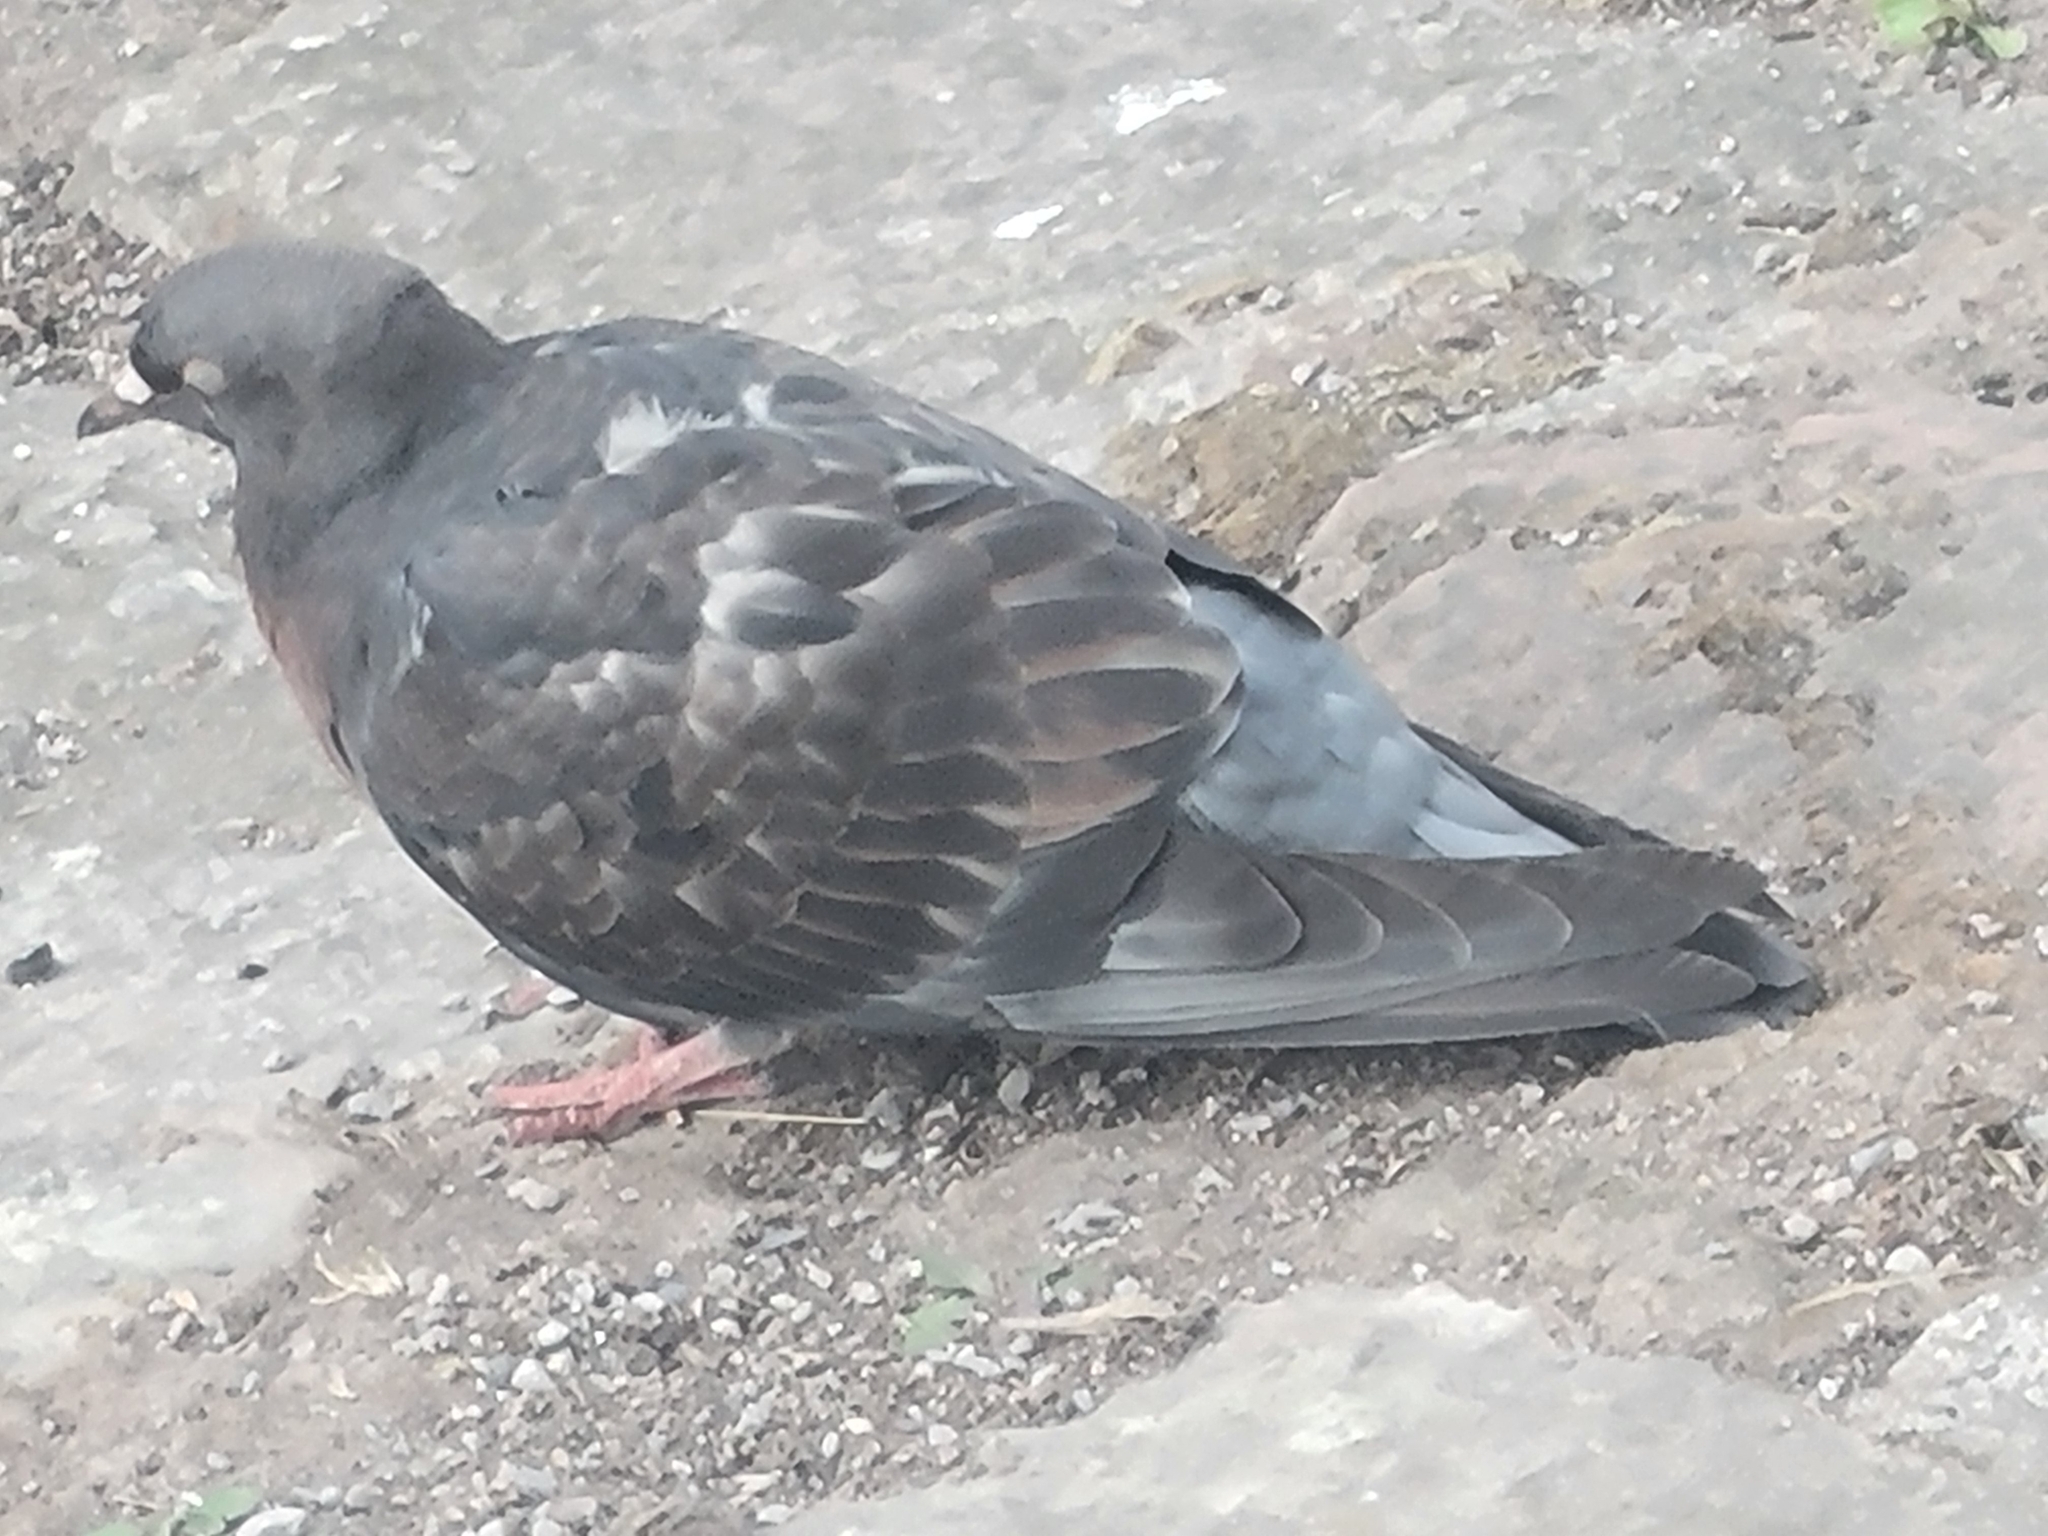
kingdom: Animalia
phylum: Chordata
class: Aves
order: Columbiformes
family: Columbidae
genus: Columba
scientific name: Columba livia
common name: Rock pigeon
